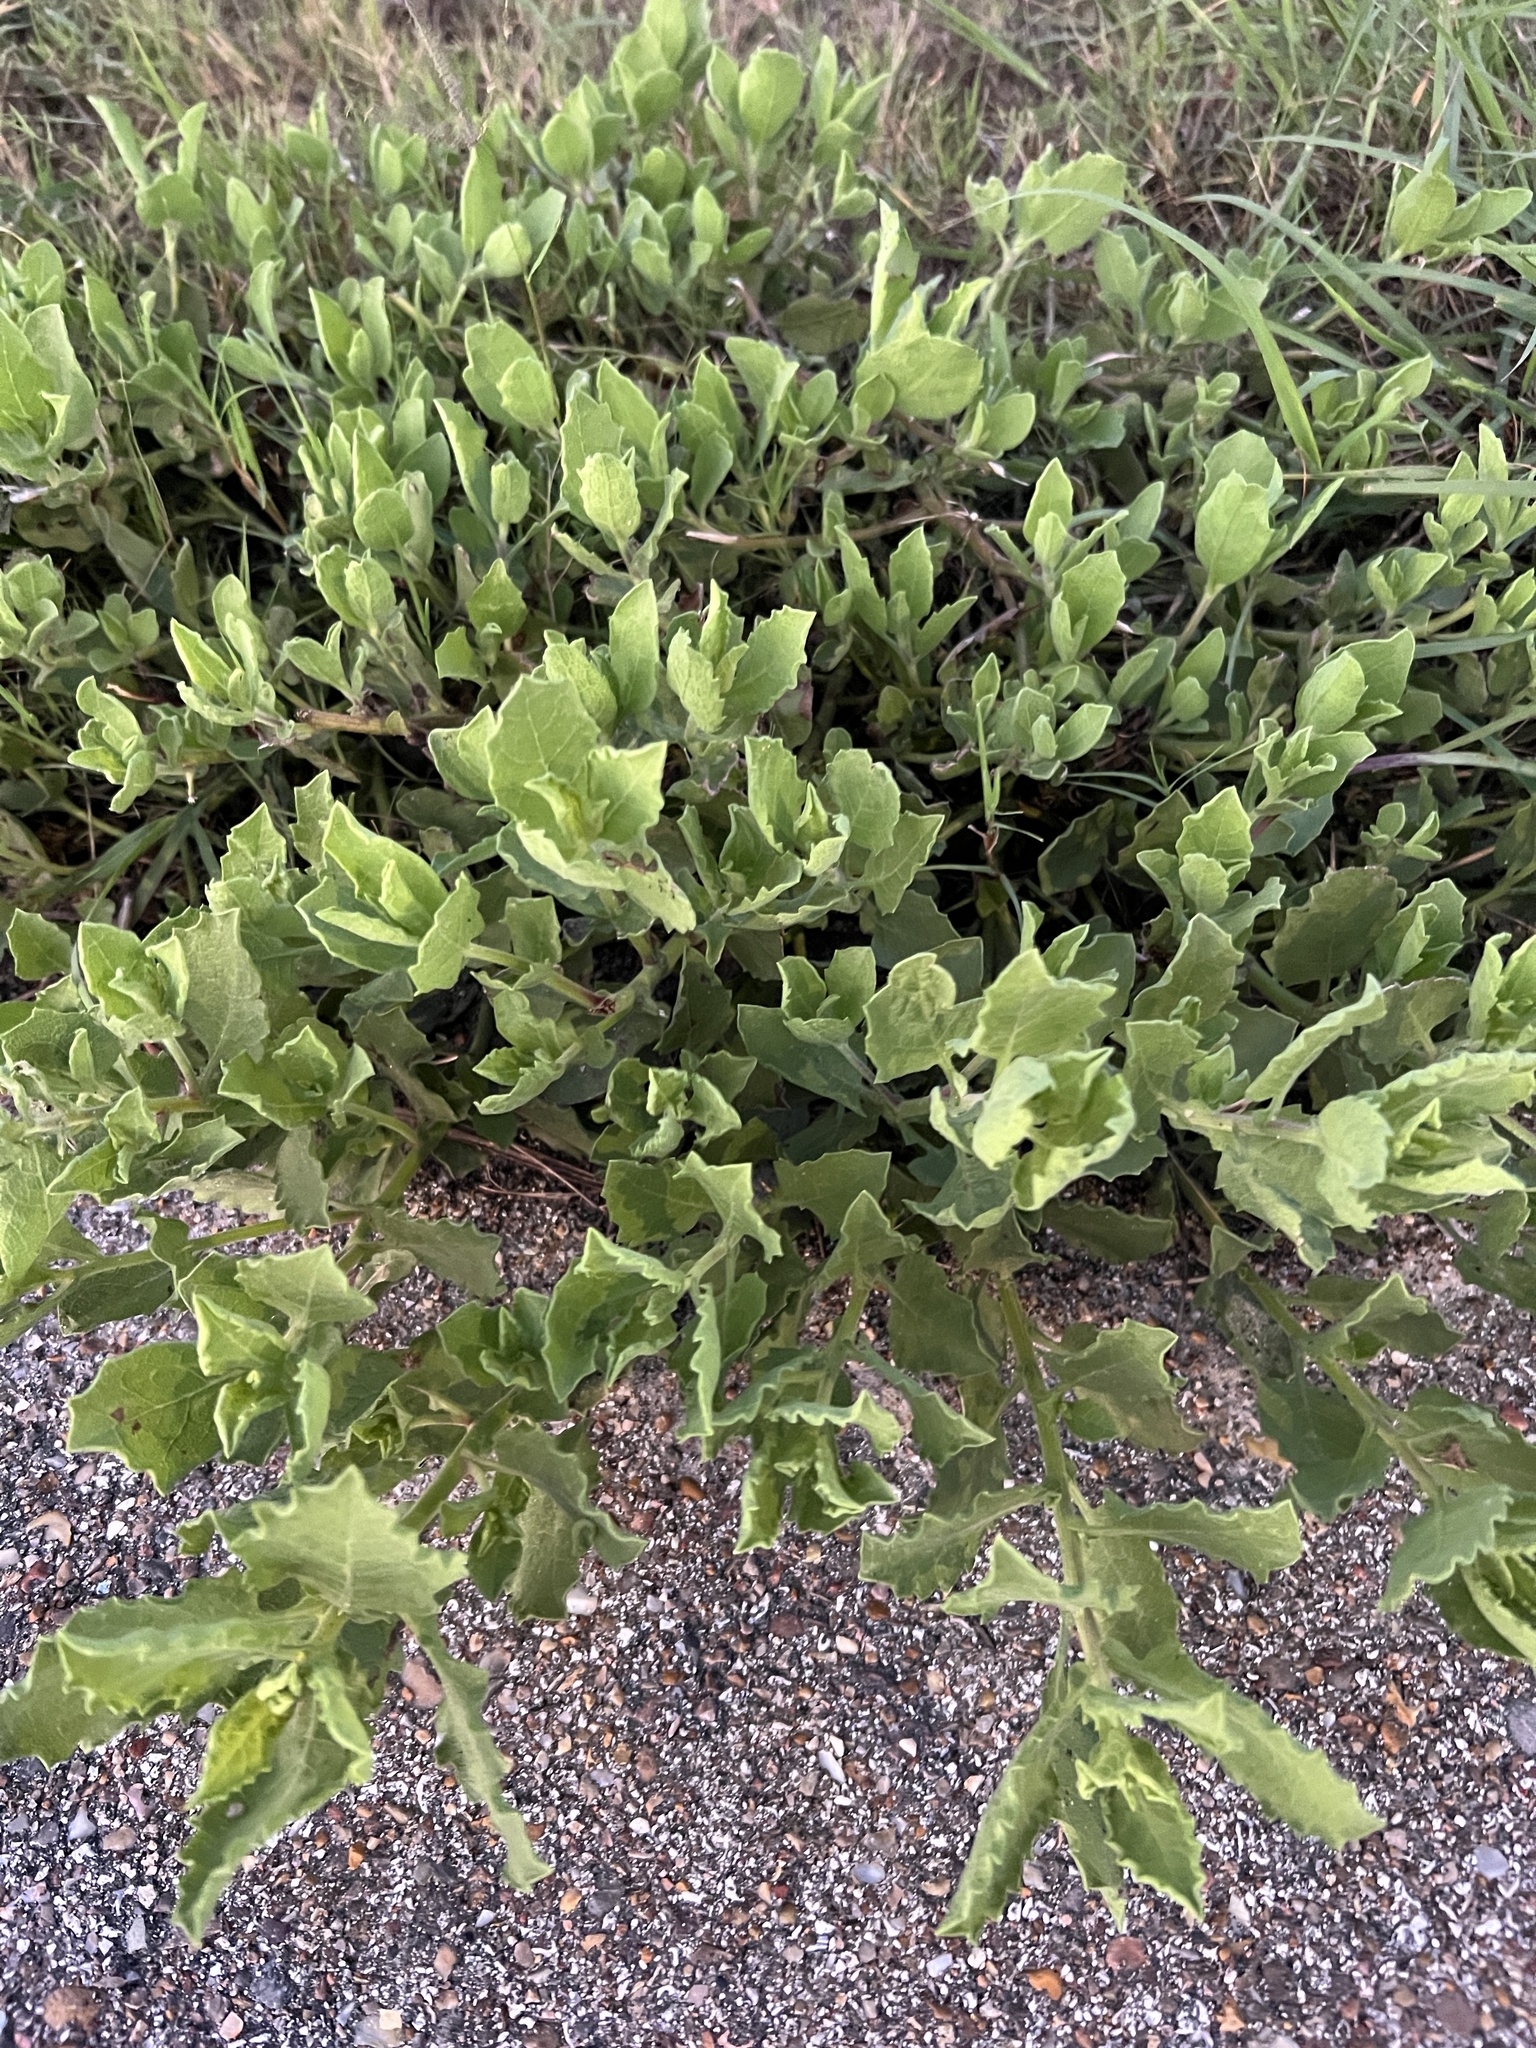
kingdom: Plantae
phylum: Tracheophyta
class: Magnoliopsida
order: Asterales
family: Asteraceae
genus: Rayjacksonia
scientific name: Rayjacksonia phyllocephala
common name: Gulf coast camphor daisy
